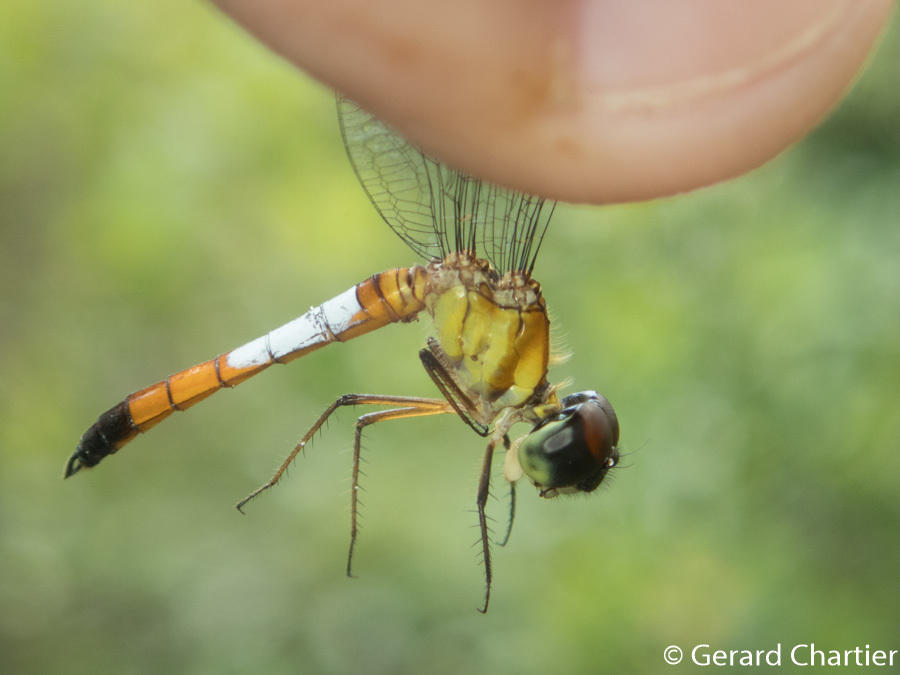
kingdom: Animalia
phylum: Arthropoda
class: Insecta
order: Odonata
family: Libellulidae
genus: Brachygonia
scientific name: Brachygonia oculata
